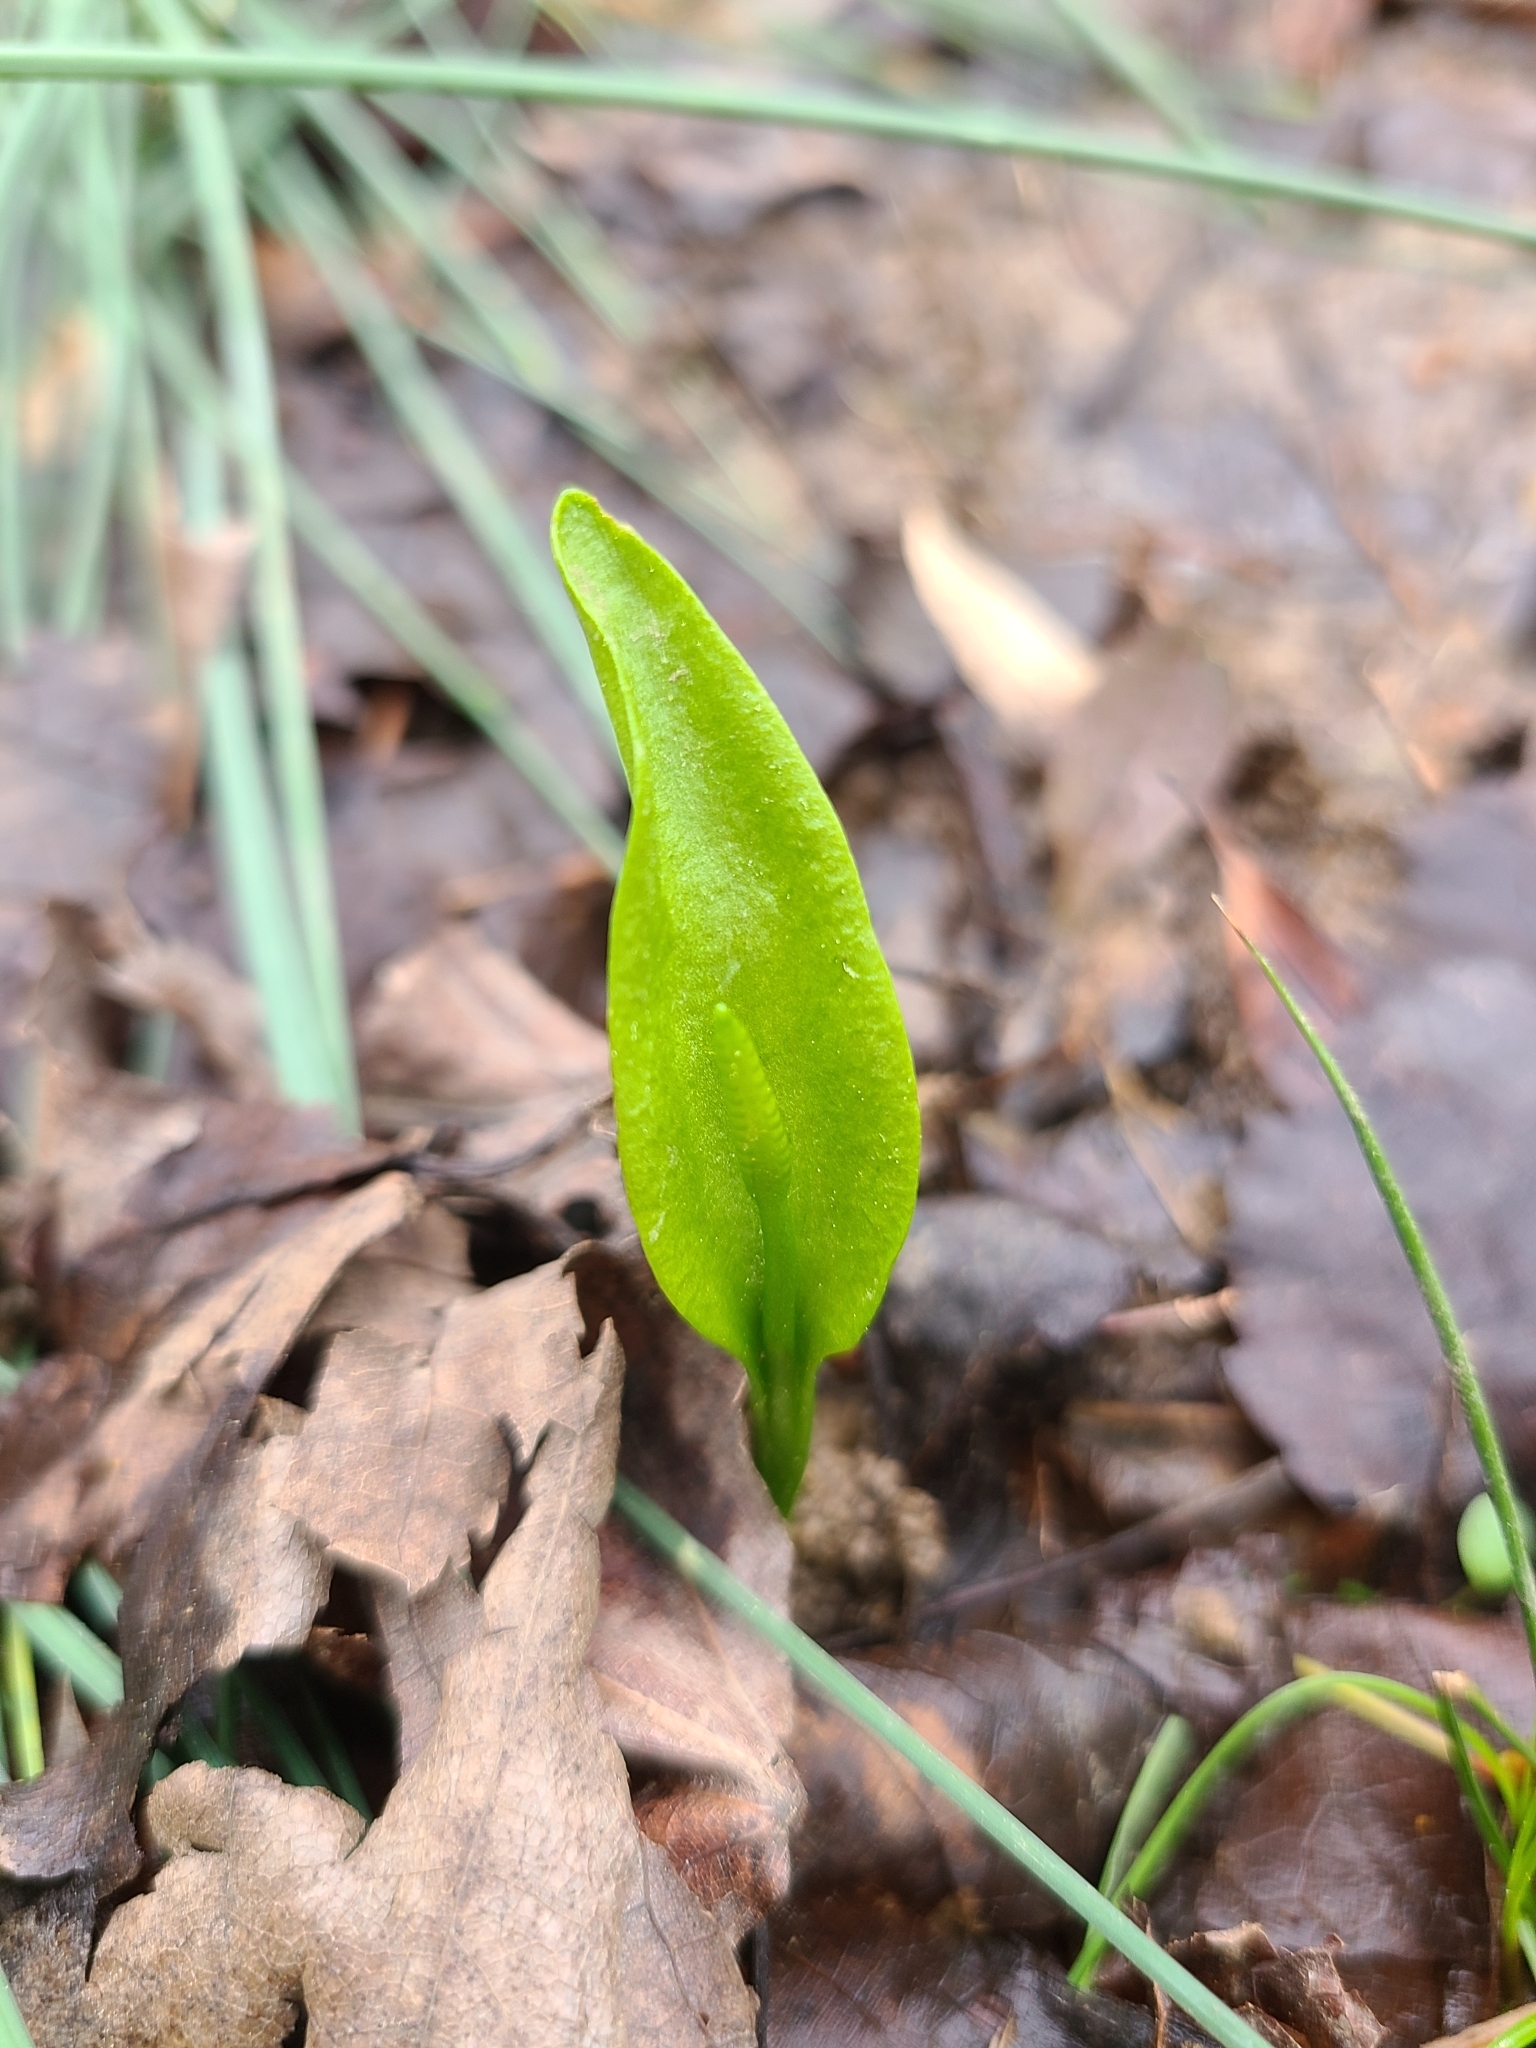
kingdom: Plantae
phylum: Tracheophyta
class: Polypodiopsida
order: Ophioglossales
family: Ophioglossaceae
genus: Ophioglossum
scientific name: Ophioglossum vulgatum
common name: Adder's-tongue
